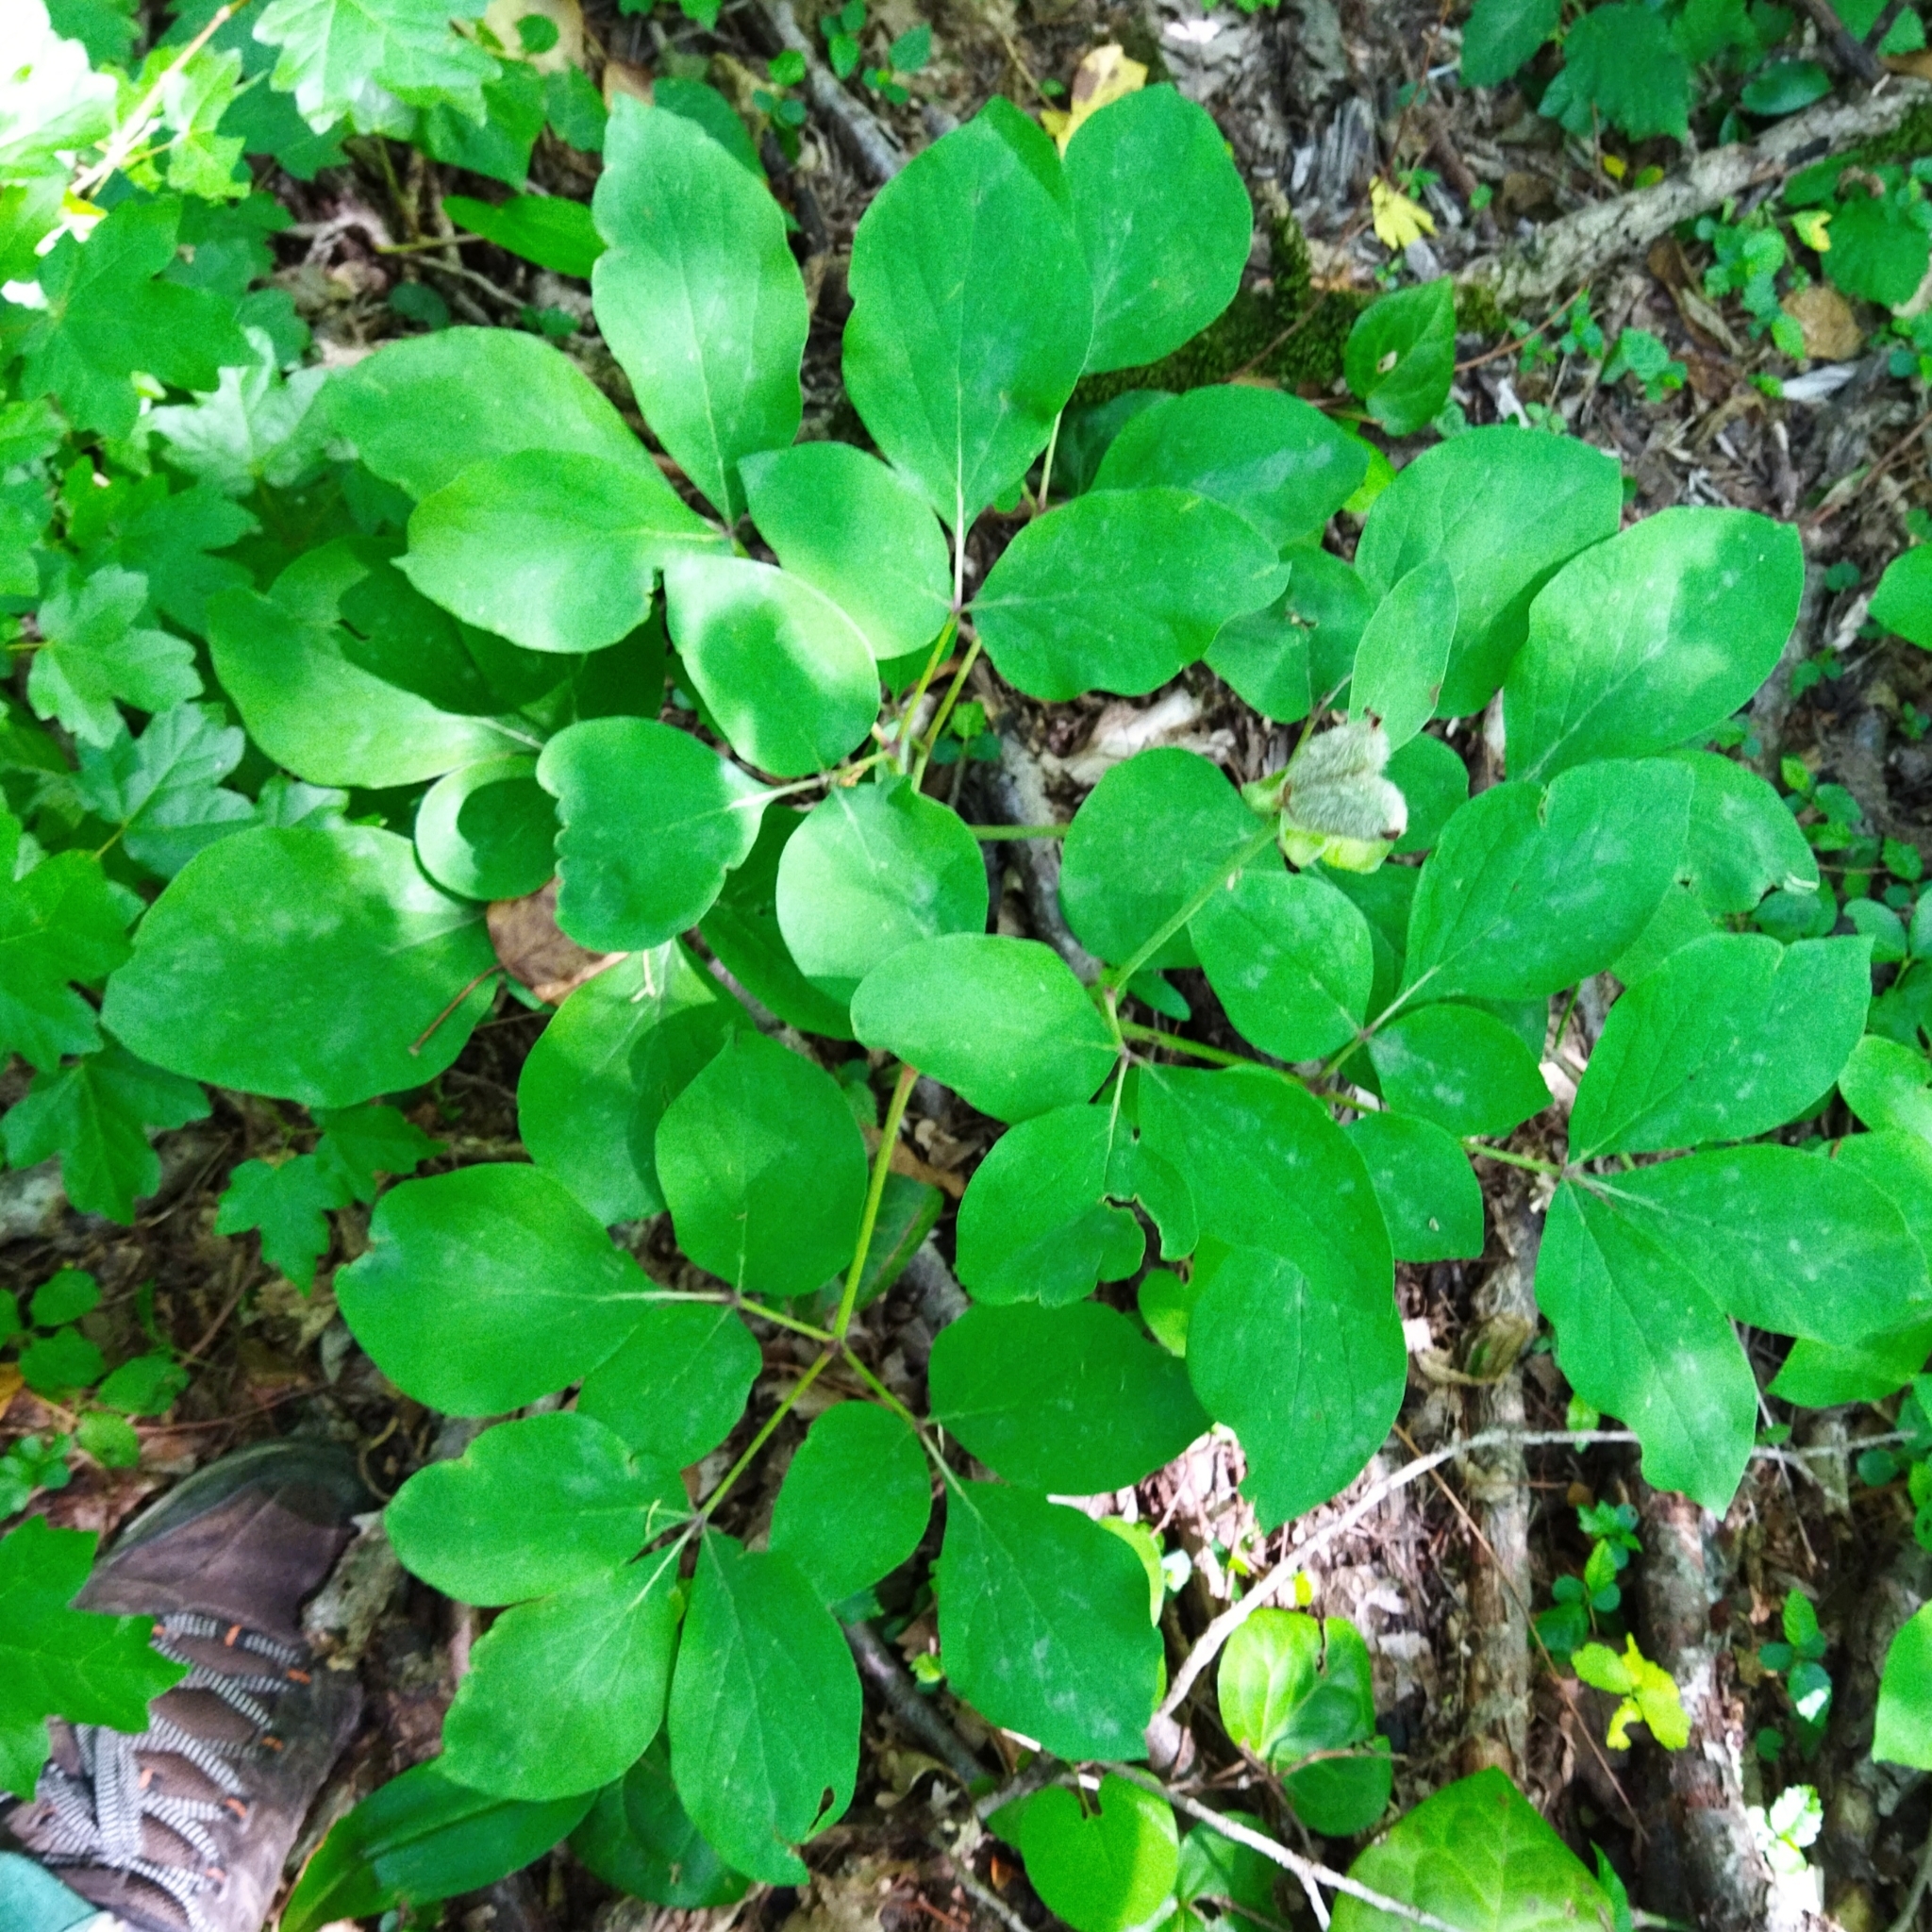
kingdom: Plantae
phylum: Tracheophyta
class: Magnoliopsida
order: Saxifragales
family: Paeoniaceae
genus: Paeonia
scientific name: Paeonia caucasica
